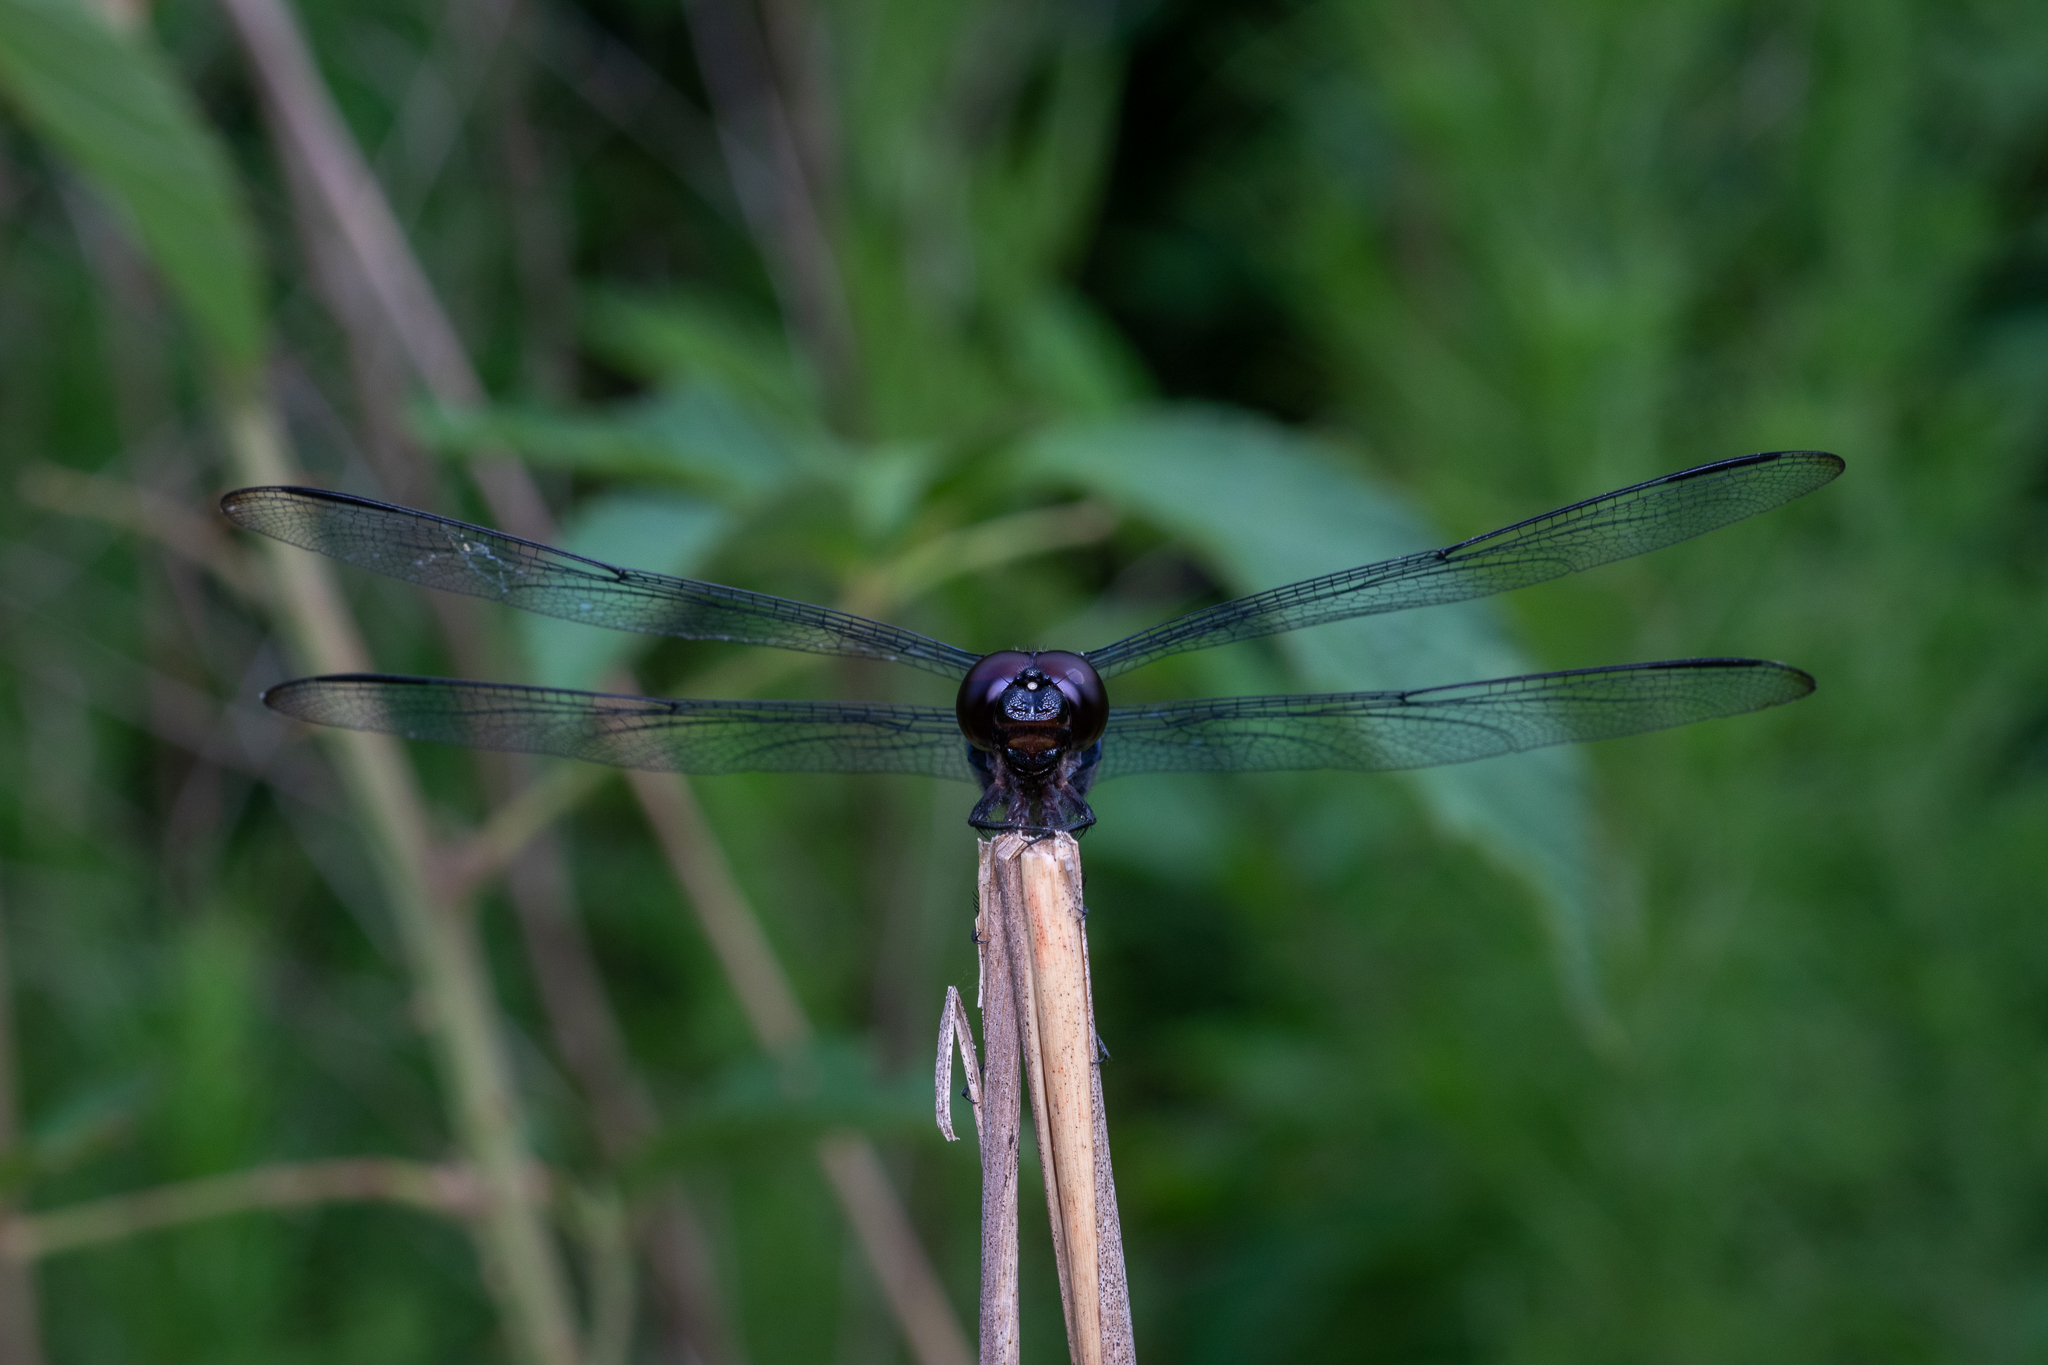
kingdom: Animalia
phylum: Arthropoda
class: Insecta
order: Odonata
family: Libellulidae
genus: Libellula
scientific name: Libellula incesta
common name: Slaty skimmer
